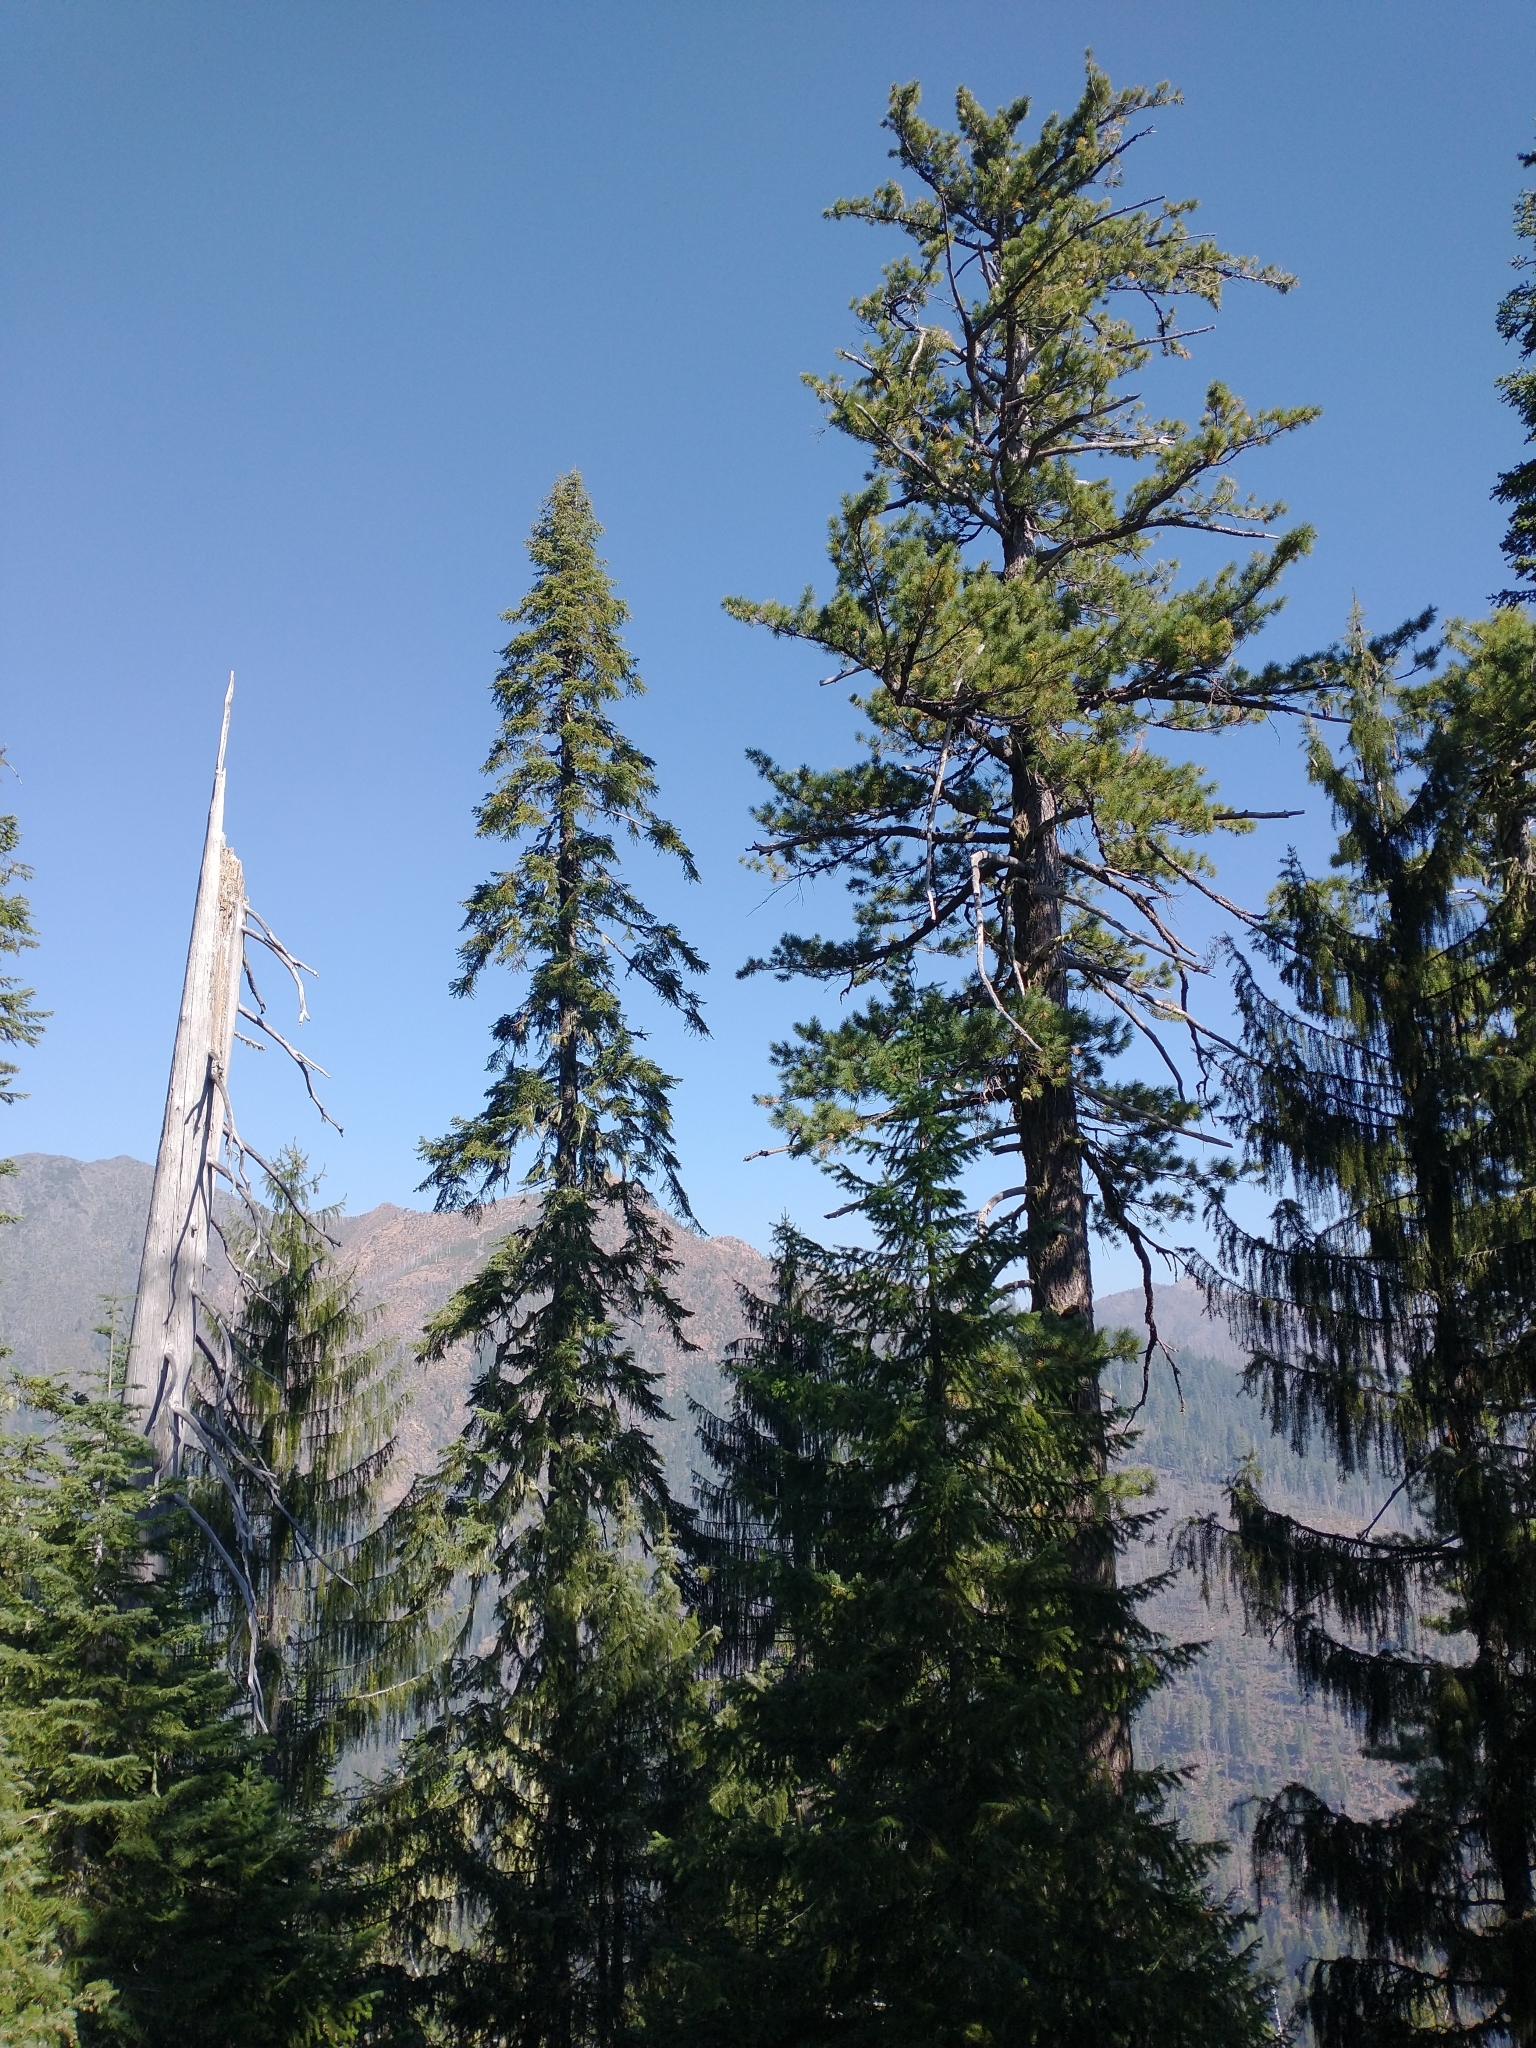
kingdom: Plantae
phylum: Tracheophyta
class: Pinopsida
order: Pinales
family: Pinaceae
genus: Pinus
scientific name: Pinus lambertiana
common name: Sugar pine
